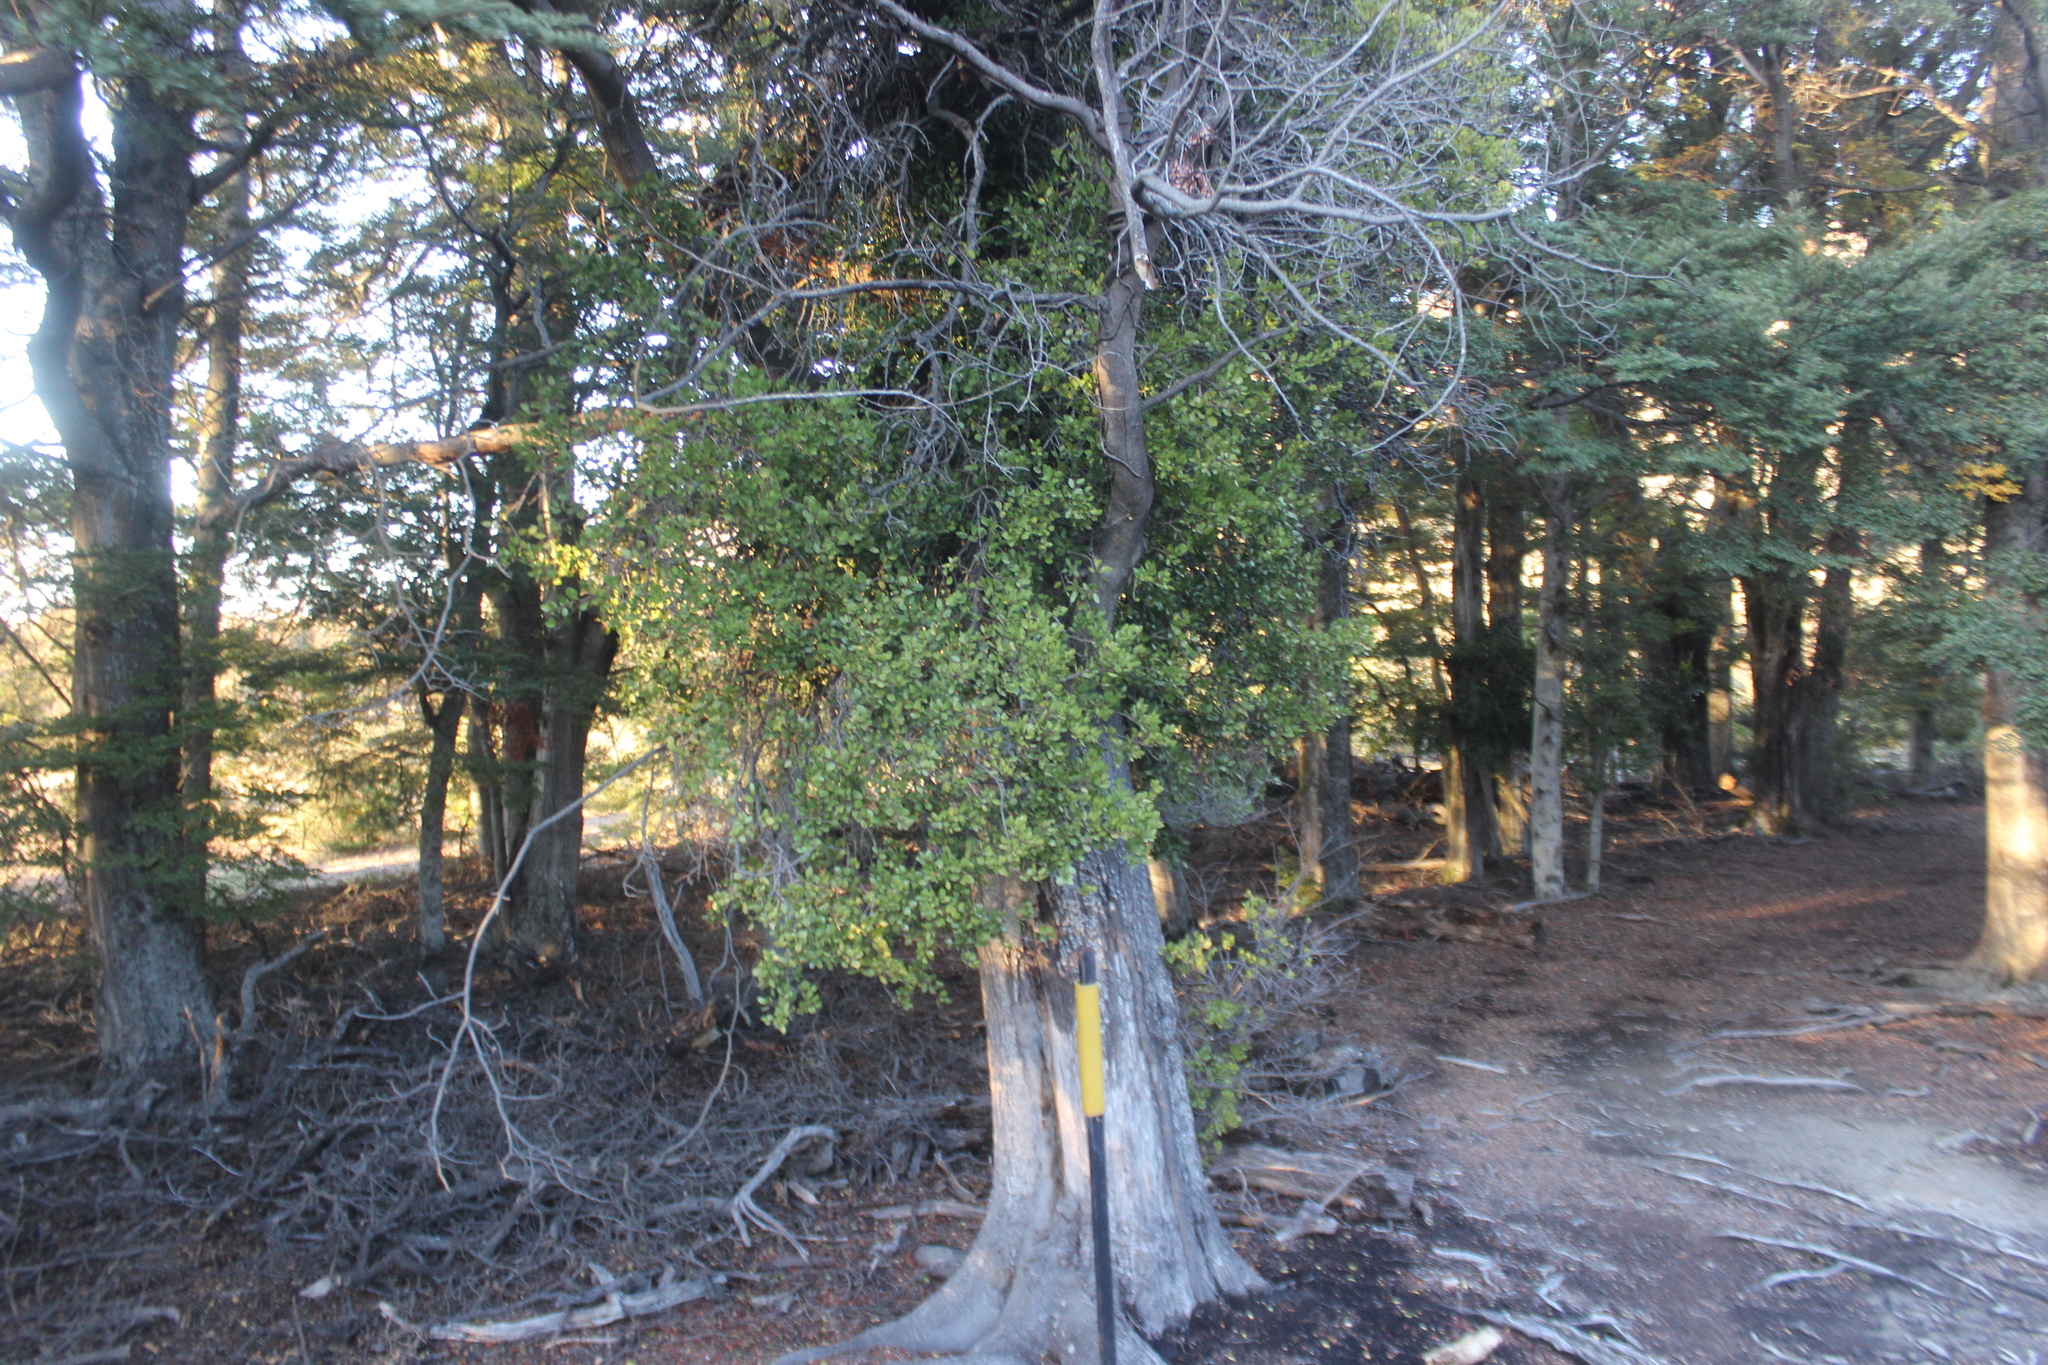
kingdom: Plantae
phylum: Tracheophyta
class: Magnoliopsida
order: Santalales
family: Loranthaceae
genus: Peraxilla
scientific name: Peraxilla tetrapetala
